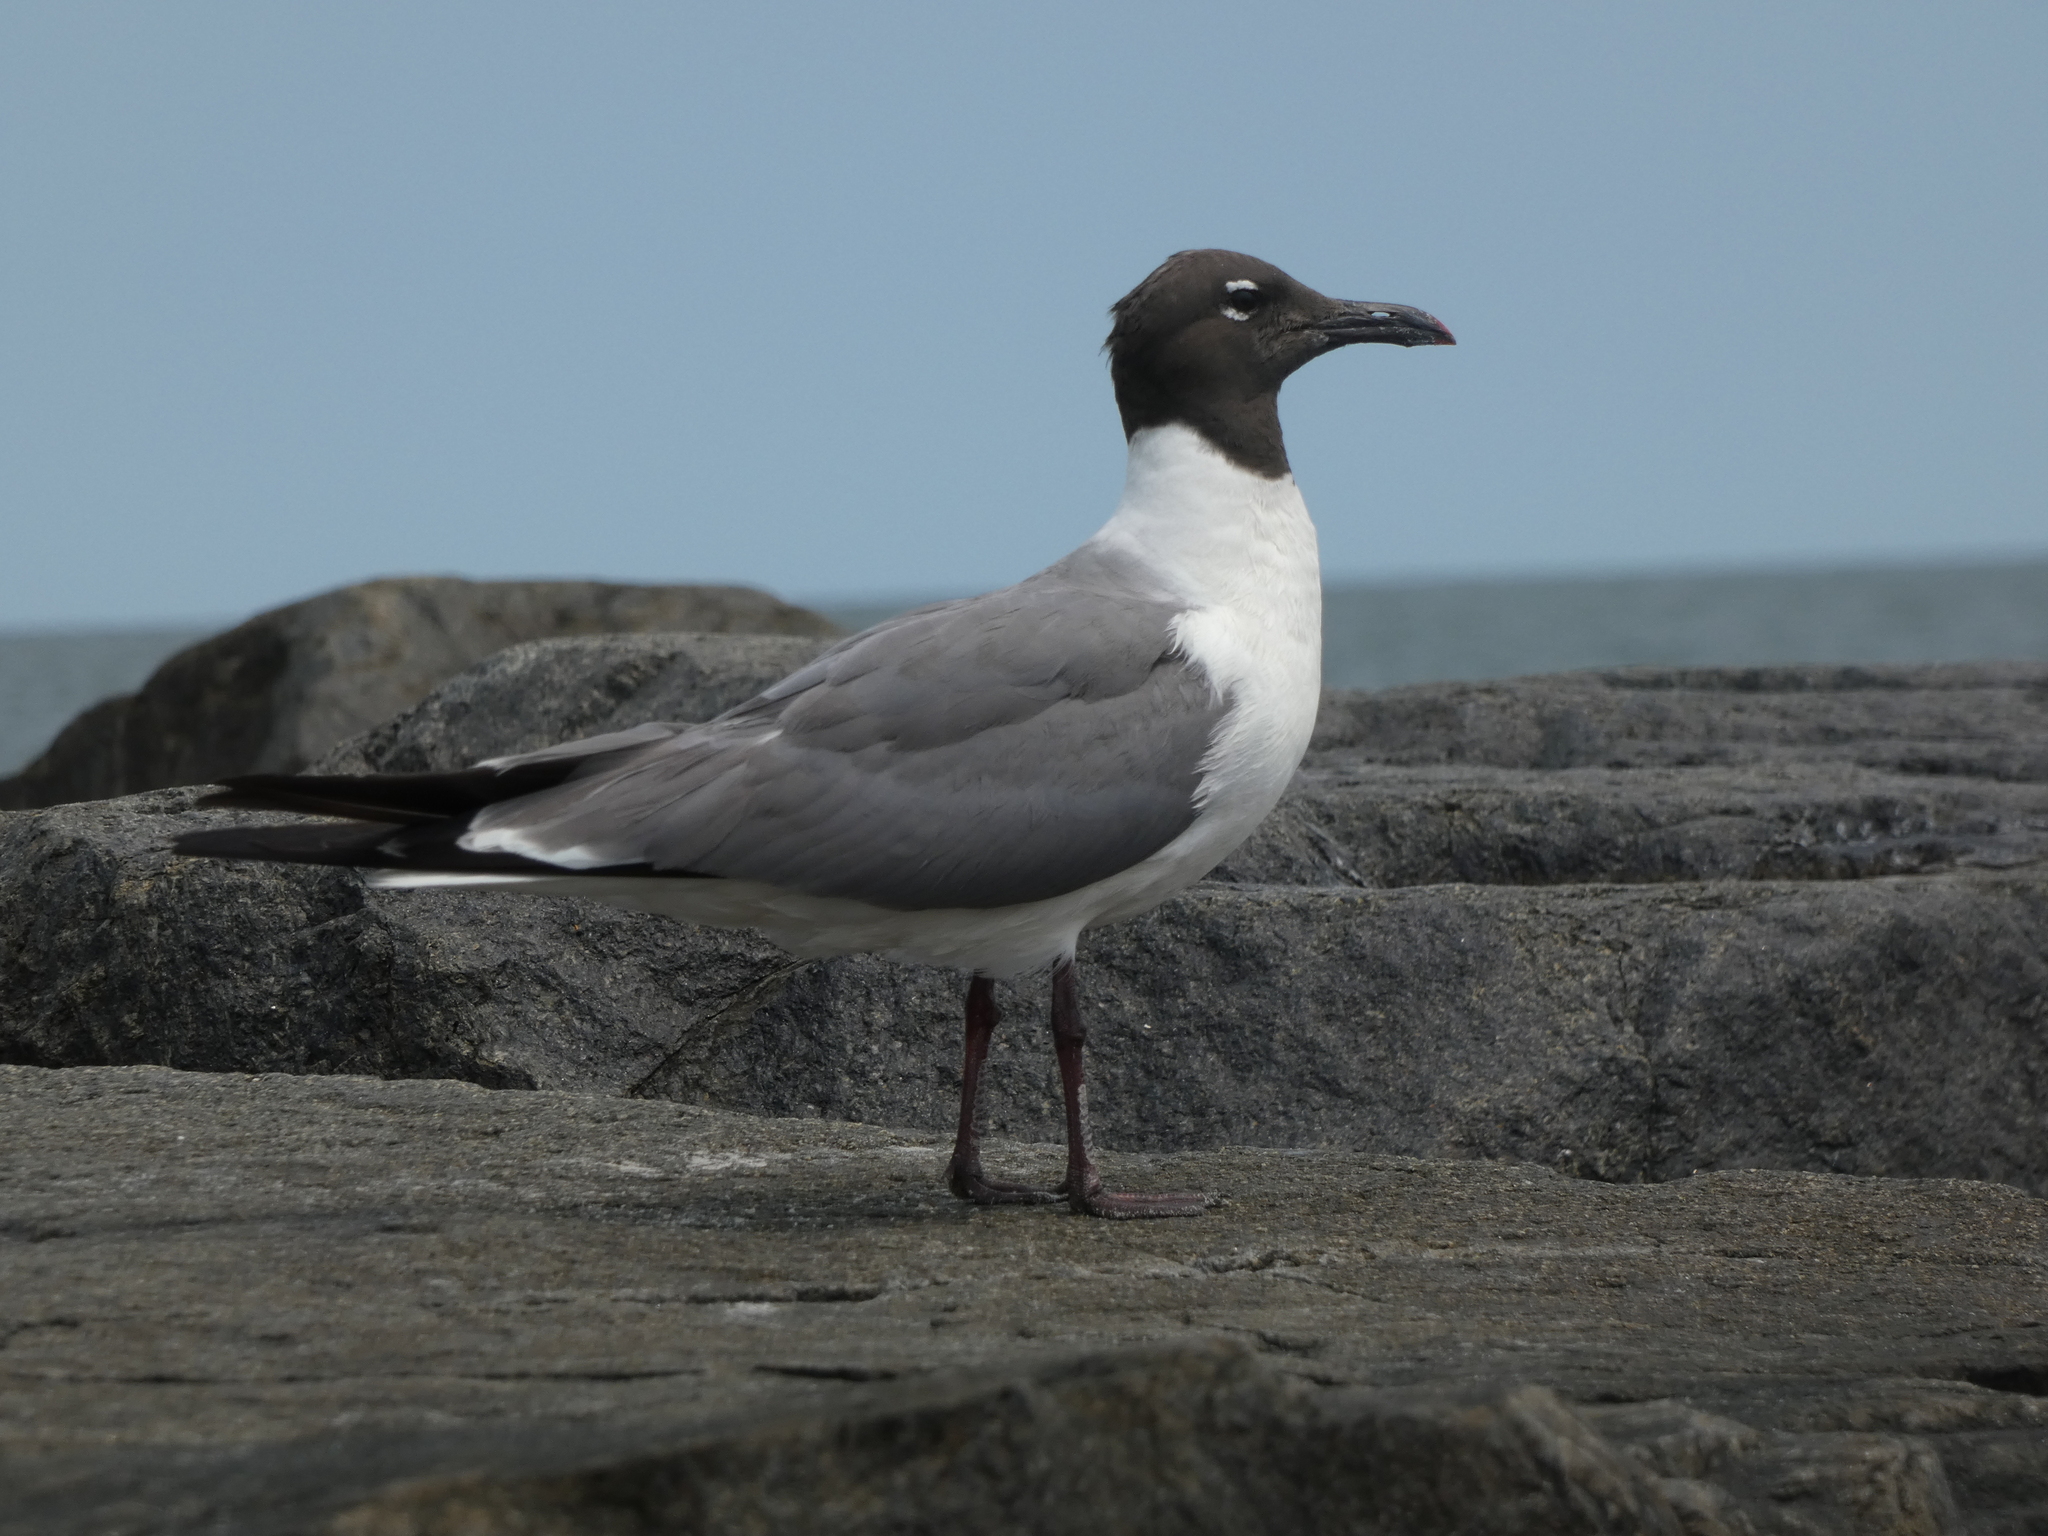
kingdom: Animalia
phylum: Chordata
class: Aves
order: Charadriiformes
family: Laridae
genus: Leucophaeus
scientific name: Leucophaeus atricilla
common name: Laughing gull
